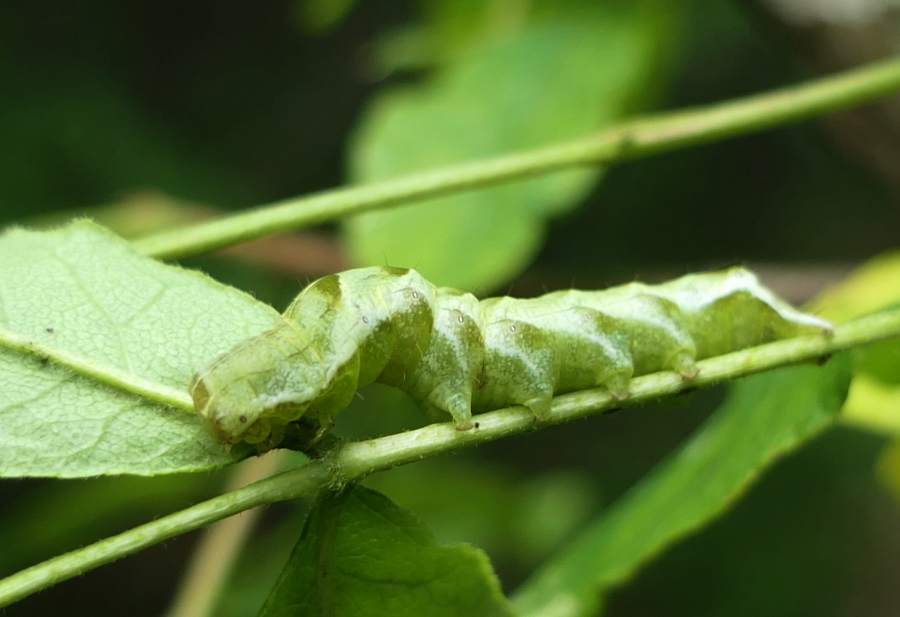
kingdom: Animalia
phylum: Arthropoda
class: Insecta
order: Lepidoptera
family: Noctuidae
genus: Melanchra
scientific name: Melanchra adjuncta
